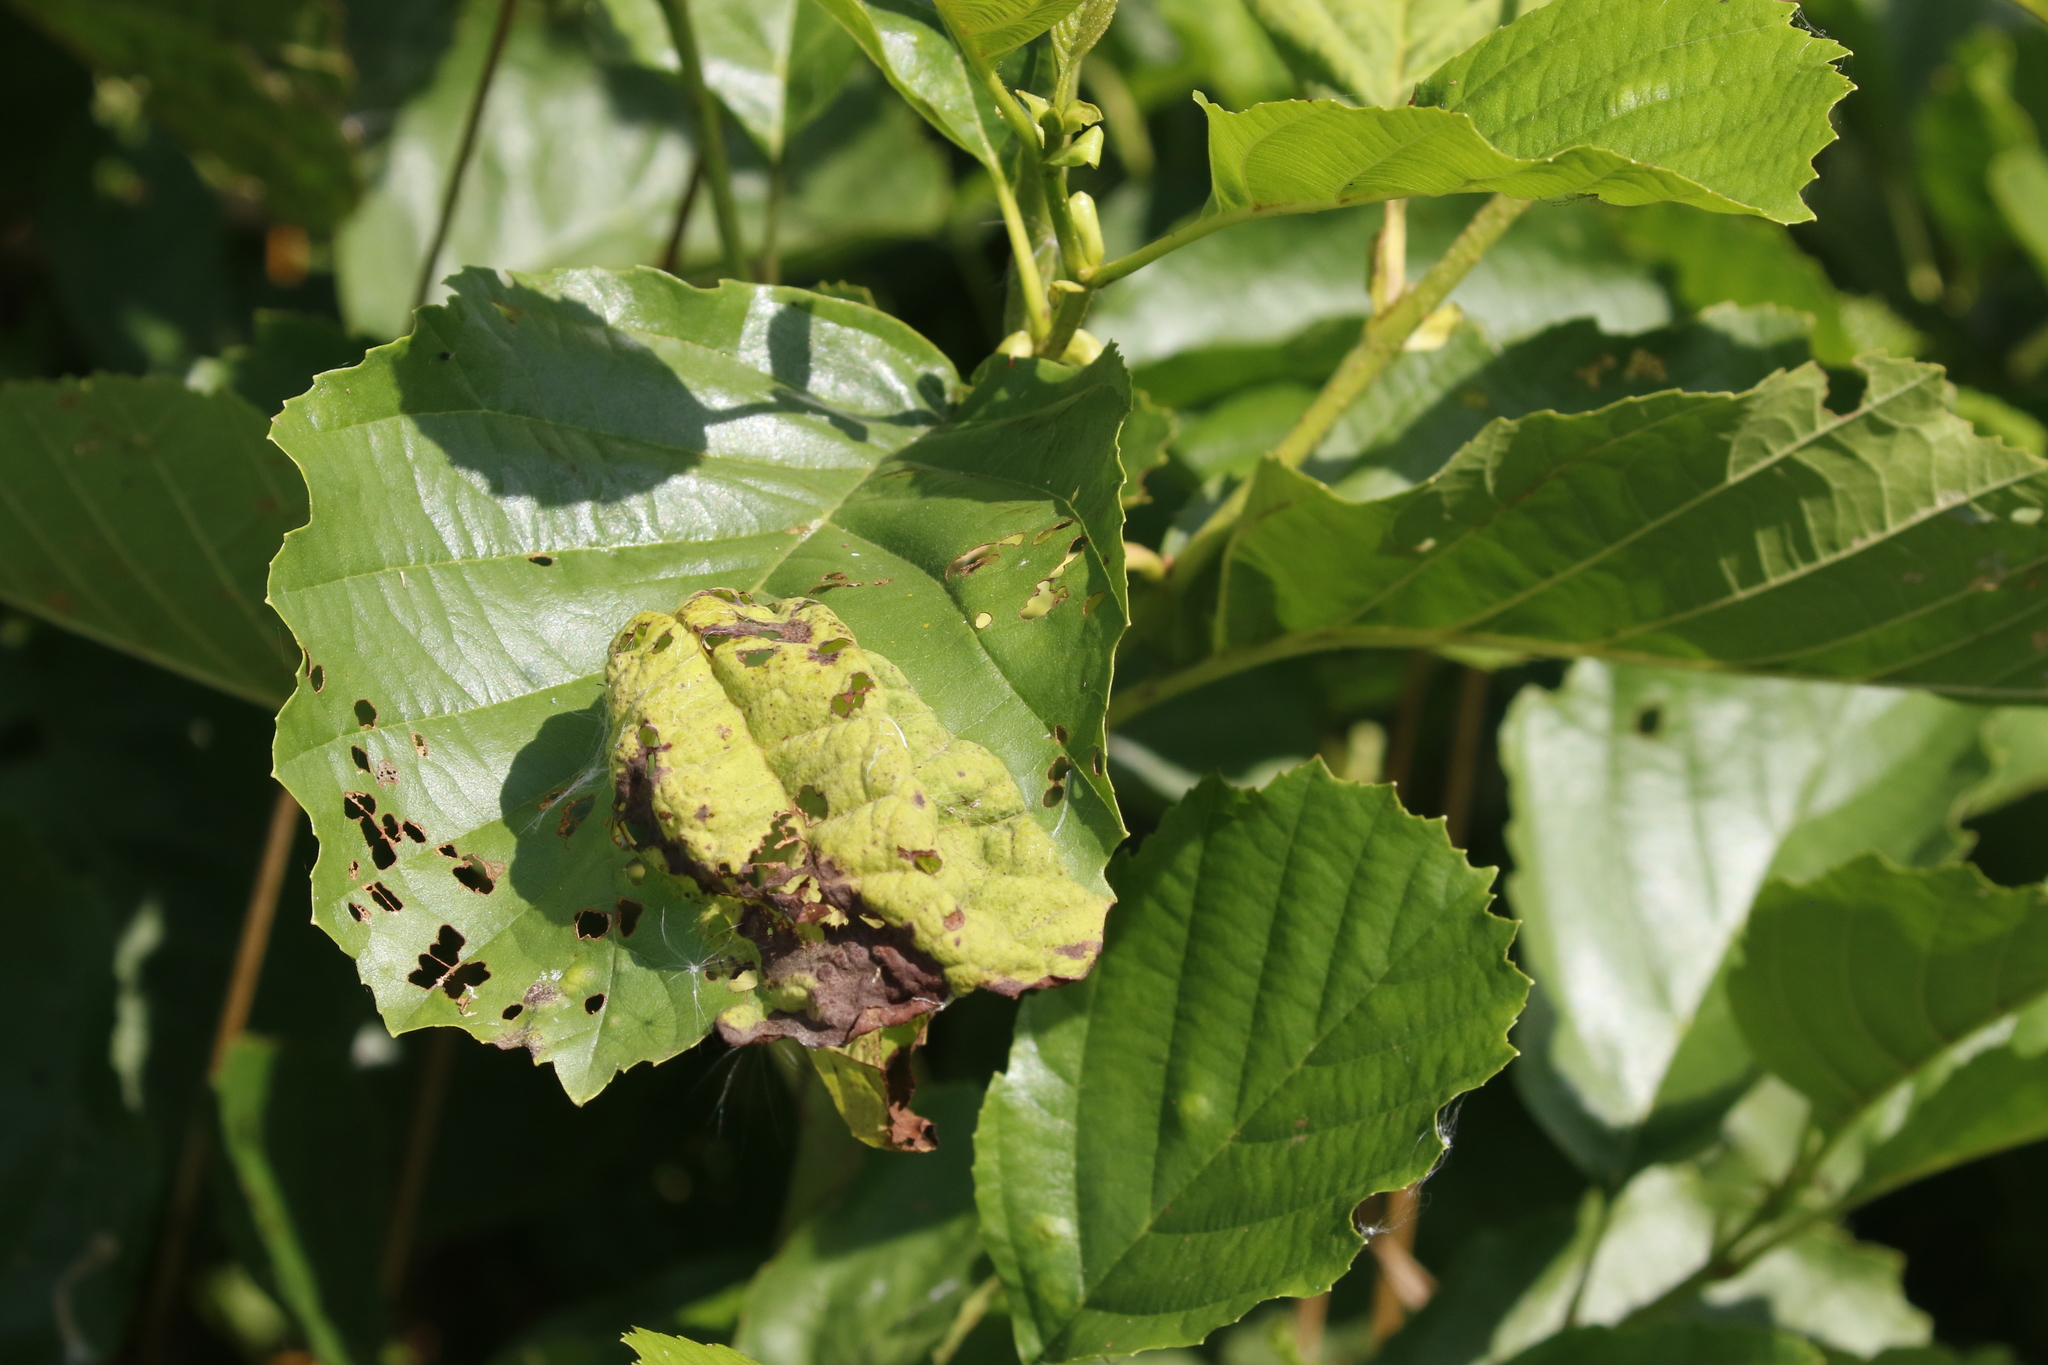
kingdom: Fungi
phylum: Ascomycota
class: Taphrinomycetes
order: Taphrinales
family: Taphrinaceae
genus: Taphrina
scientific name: Taphrina tosquinetii
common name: Alder wrinkle
